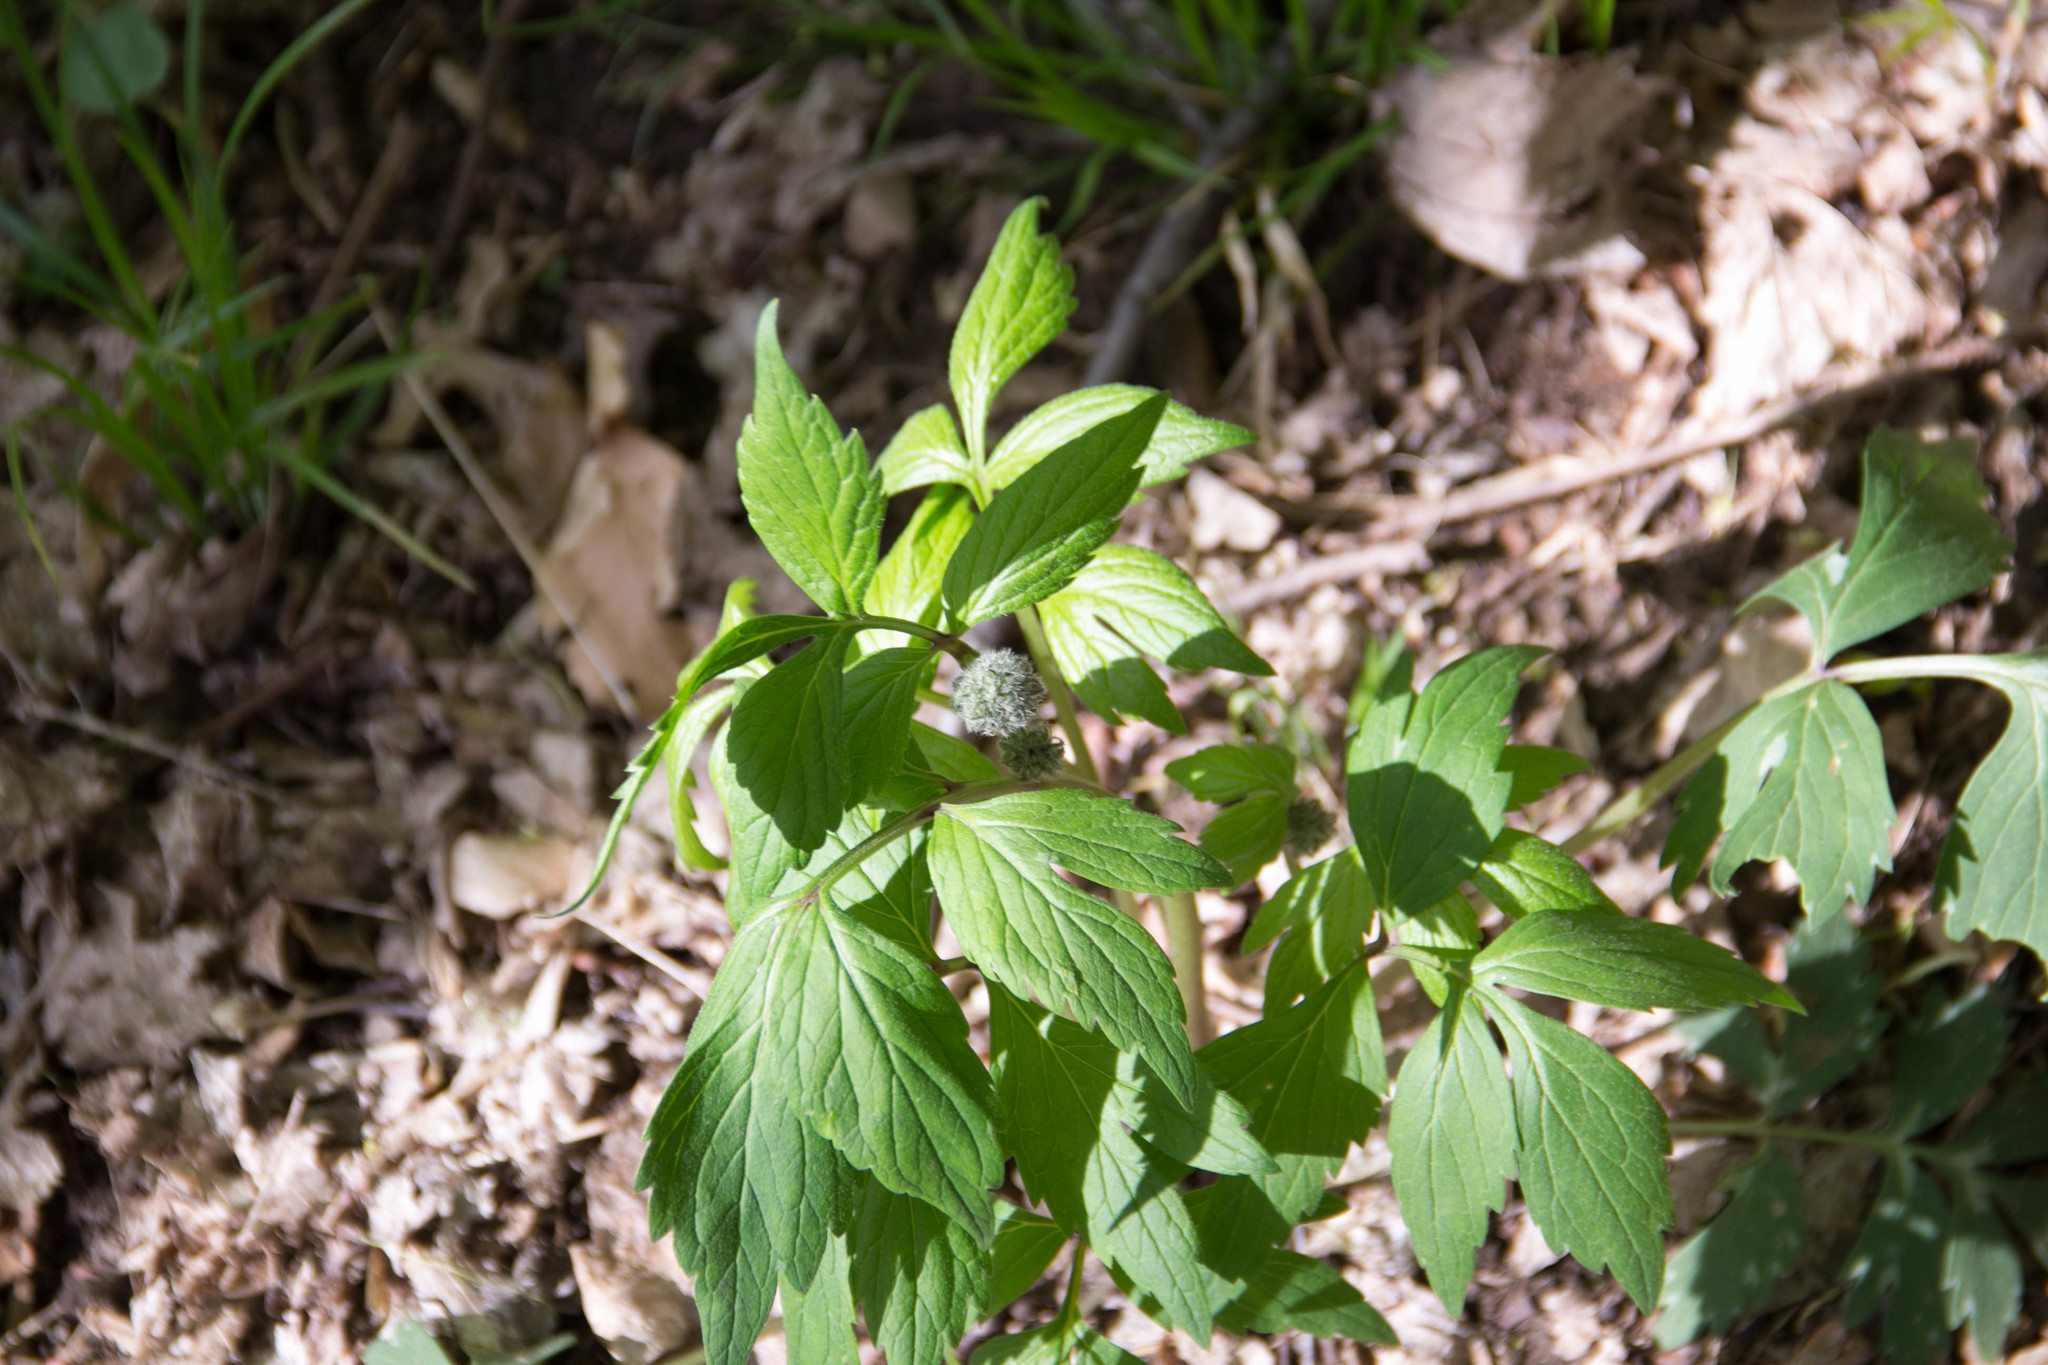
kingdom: Plantae
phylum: Tracheophyta
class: Magnoliopsida
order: Boraginales
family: Hydrophyllaceae
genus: Hydrophyllum
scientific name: Hydrophyllum virginianum
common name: Virginia waterleaf
